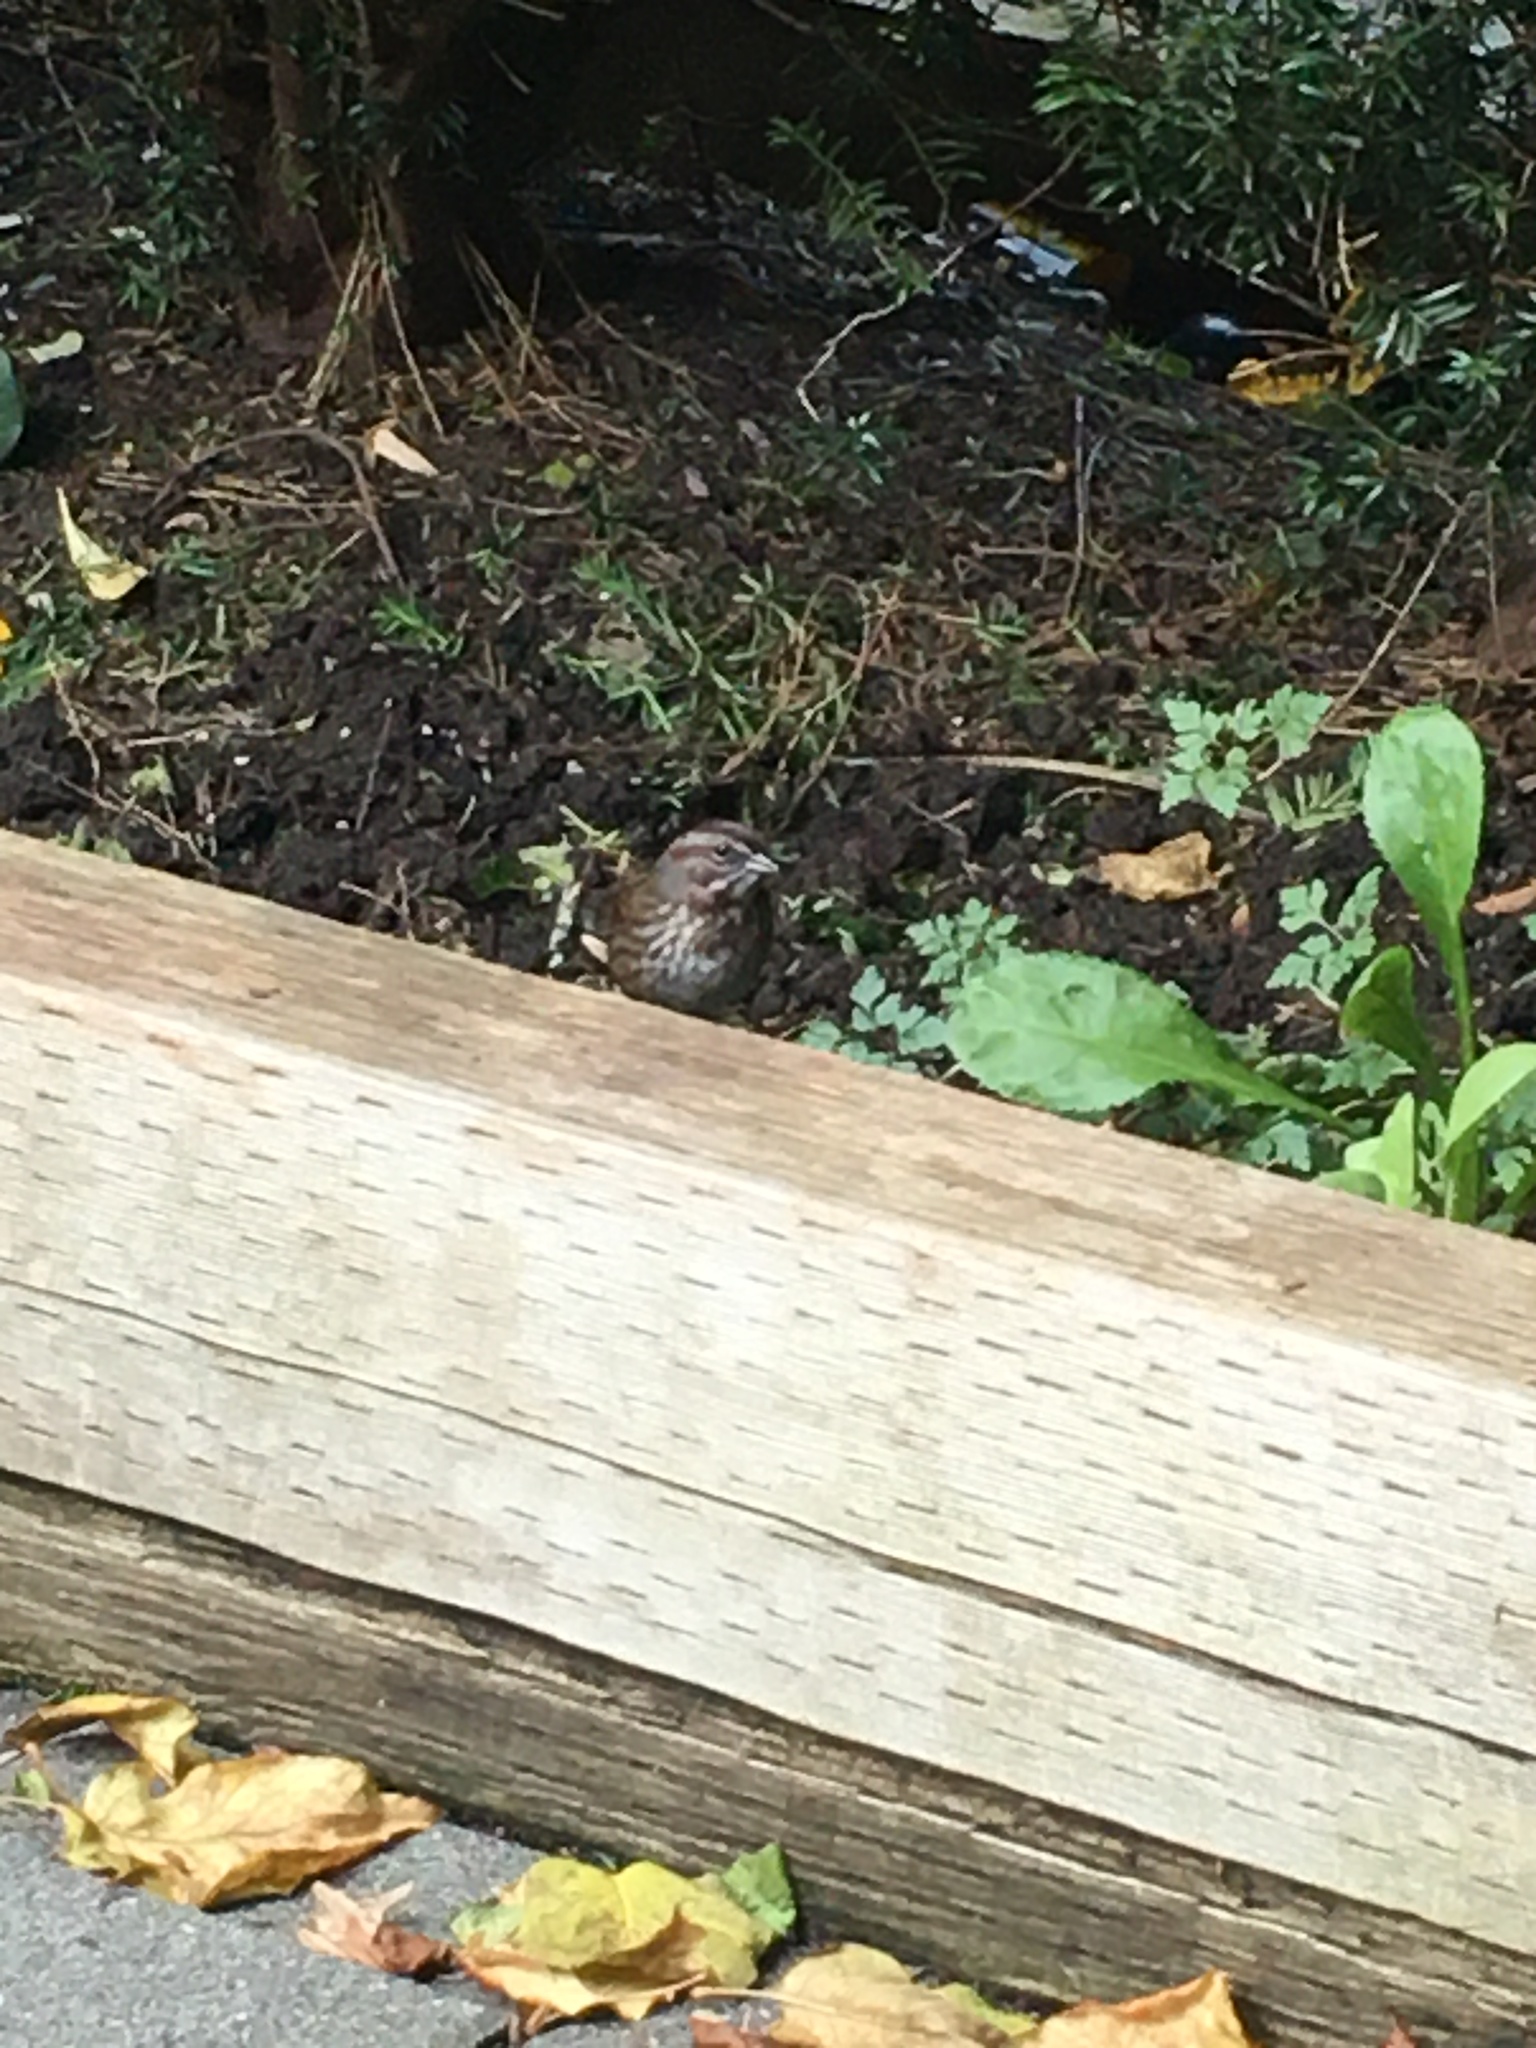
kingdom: Animalia
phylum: Chordata
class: Aves
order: Passeriformes
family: Passerellidae
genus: Melospiza
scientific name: Melospiza melodia
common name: Song sparrow
